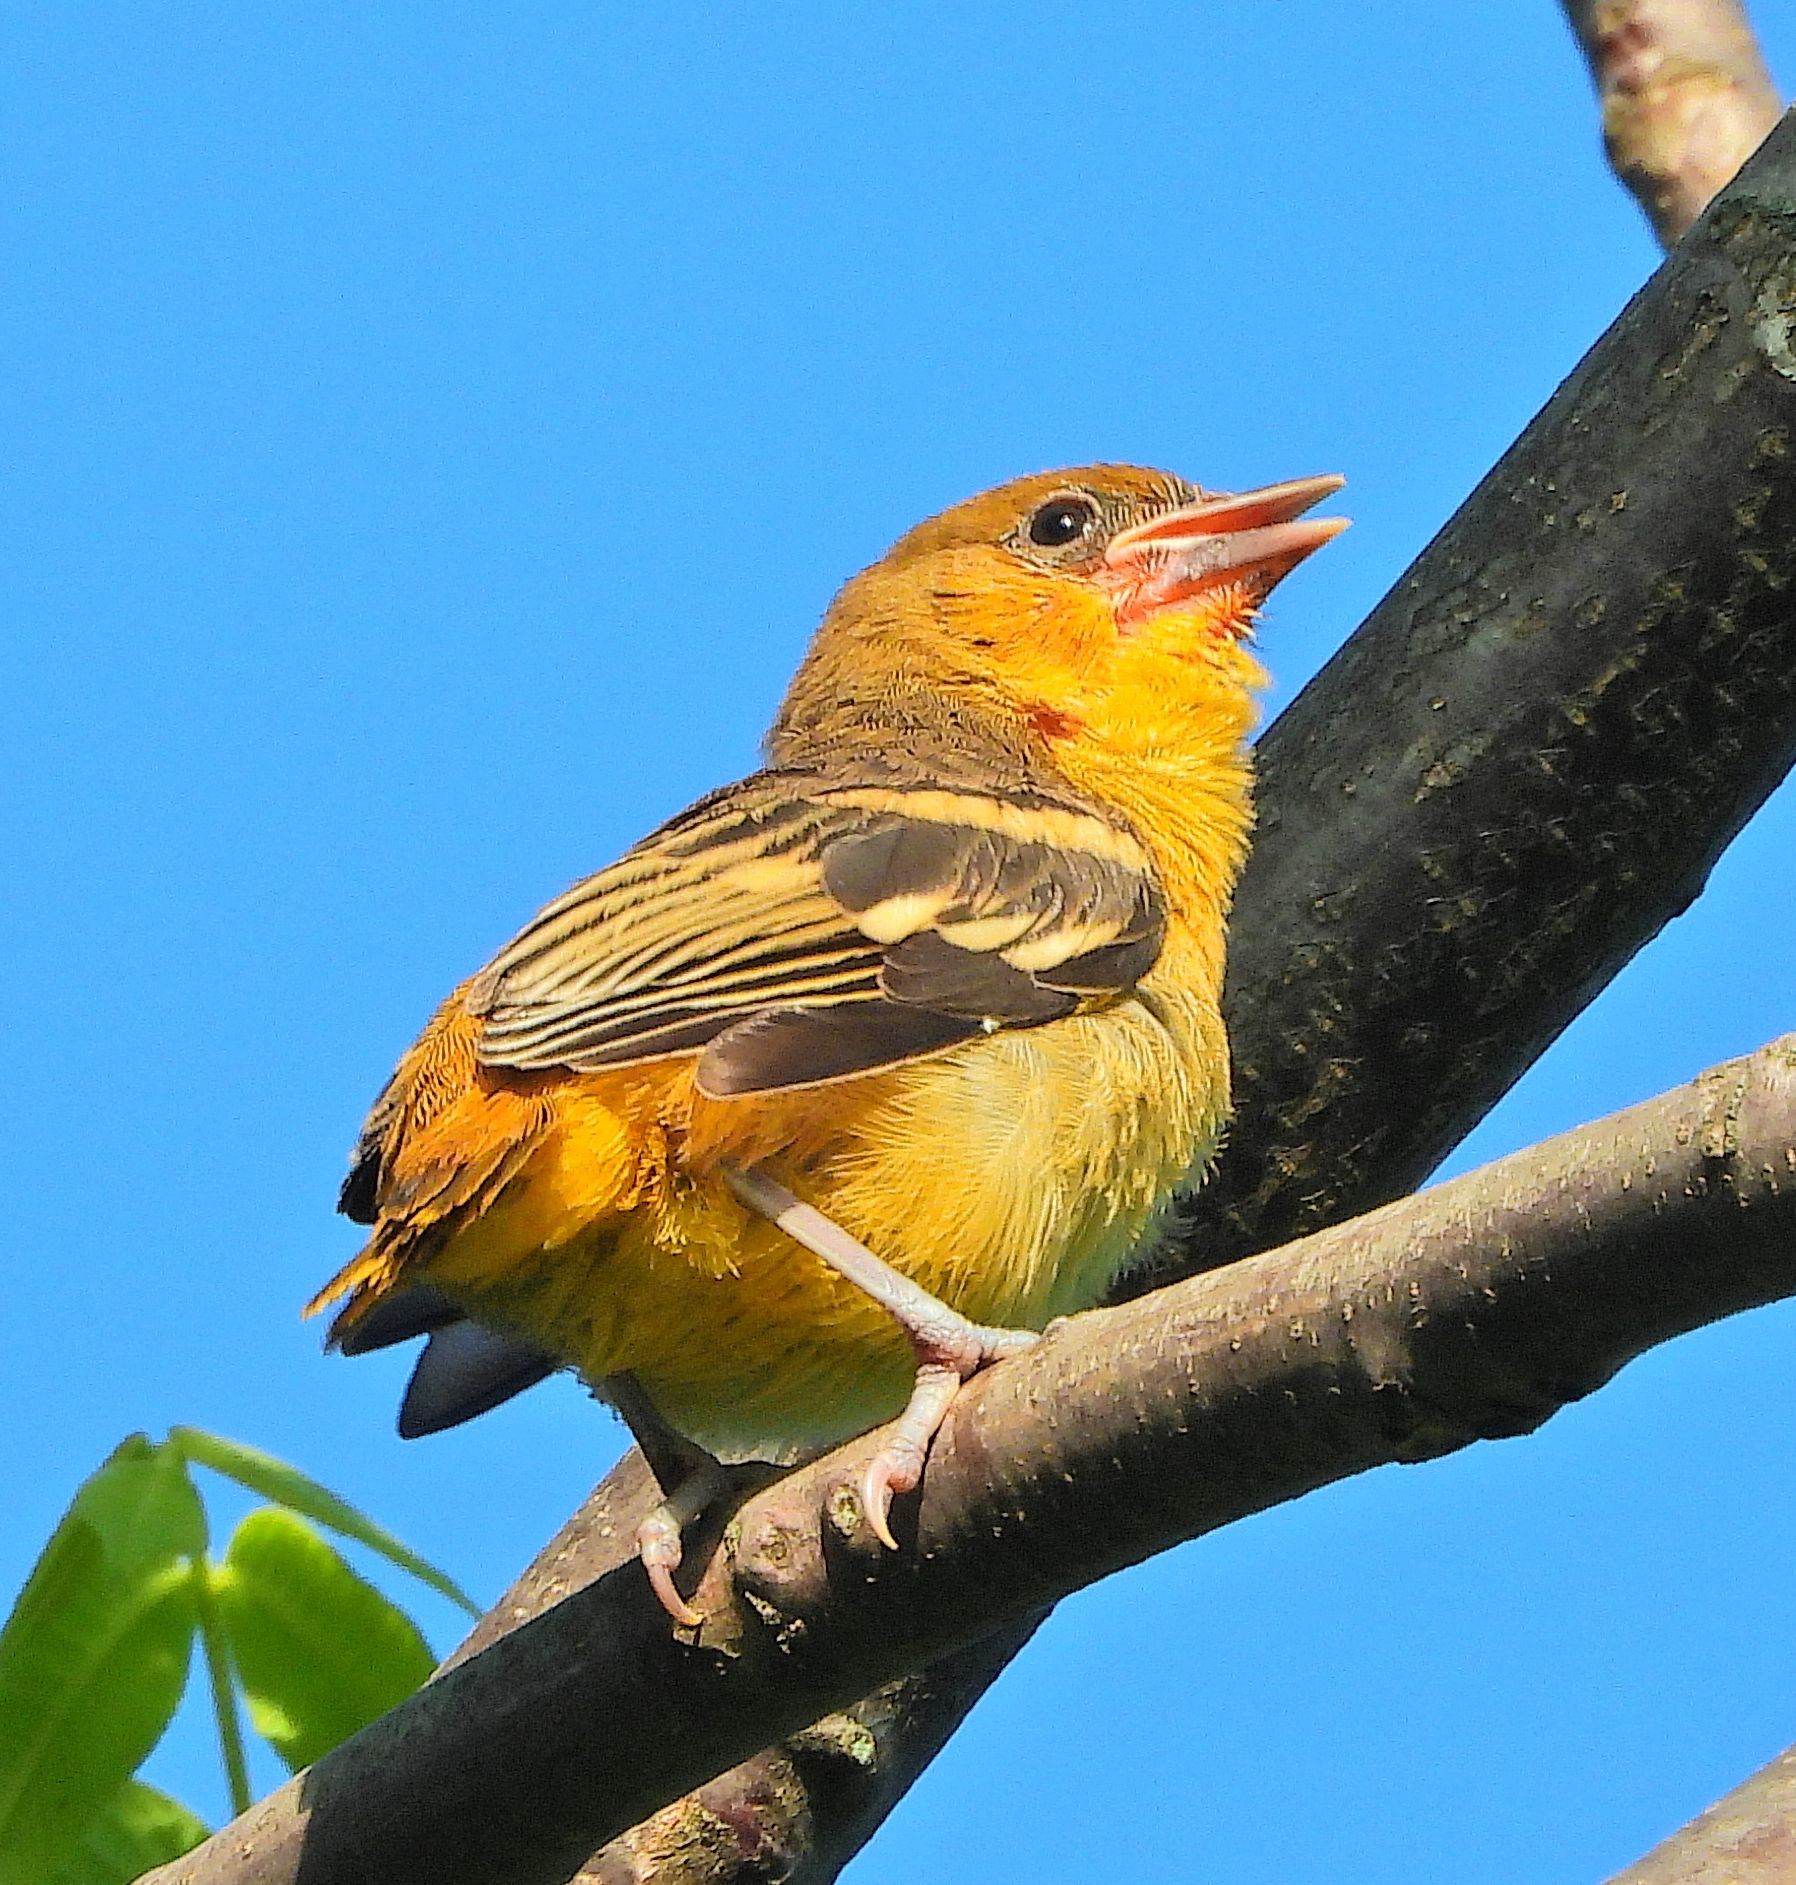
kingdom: Animalia
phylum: Chordata
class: Aves
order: Passeriformes
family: Icteridae
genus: Icterus
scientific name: Icterus galbula
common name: Baltimore oriole
